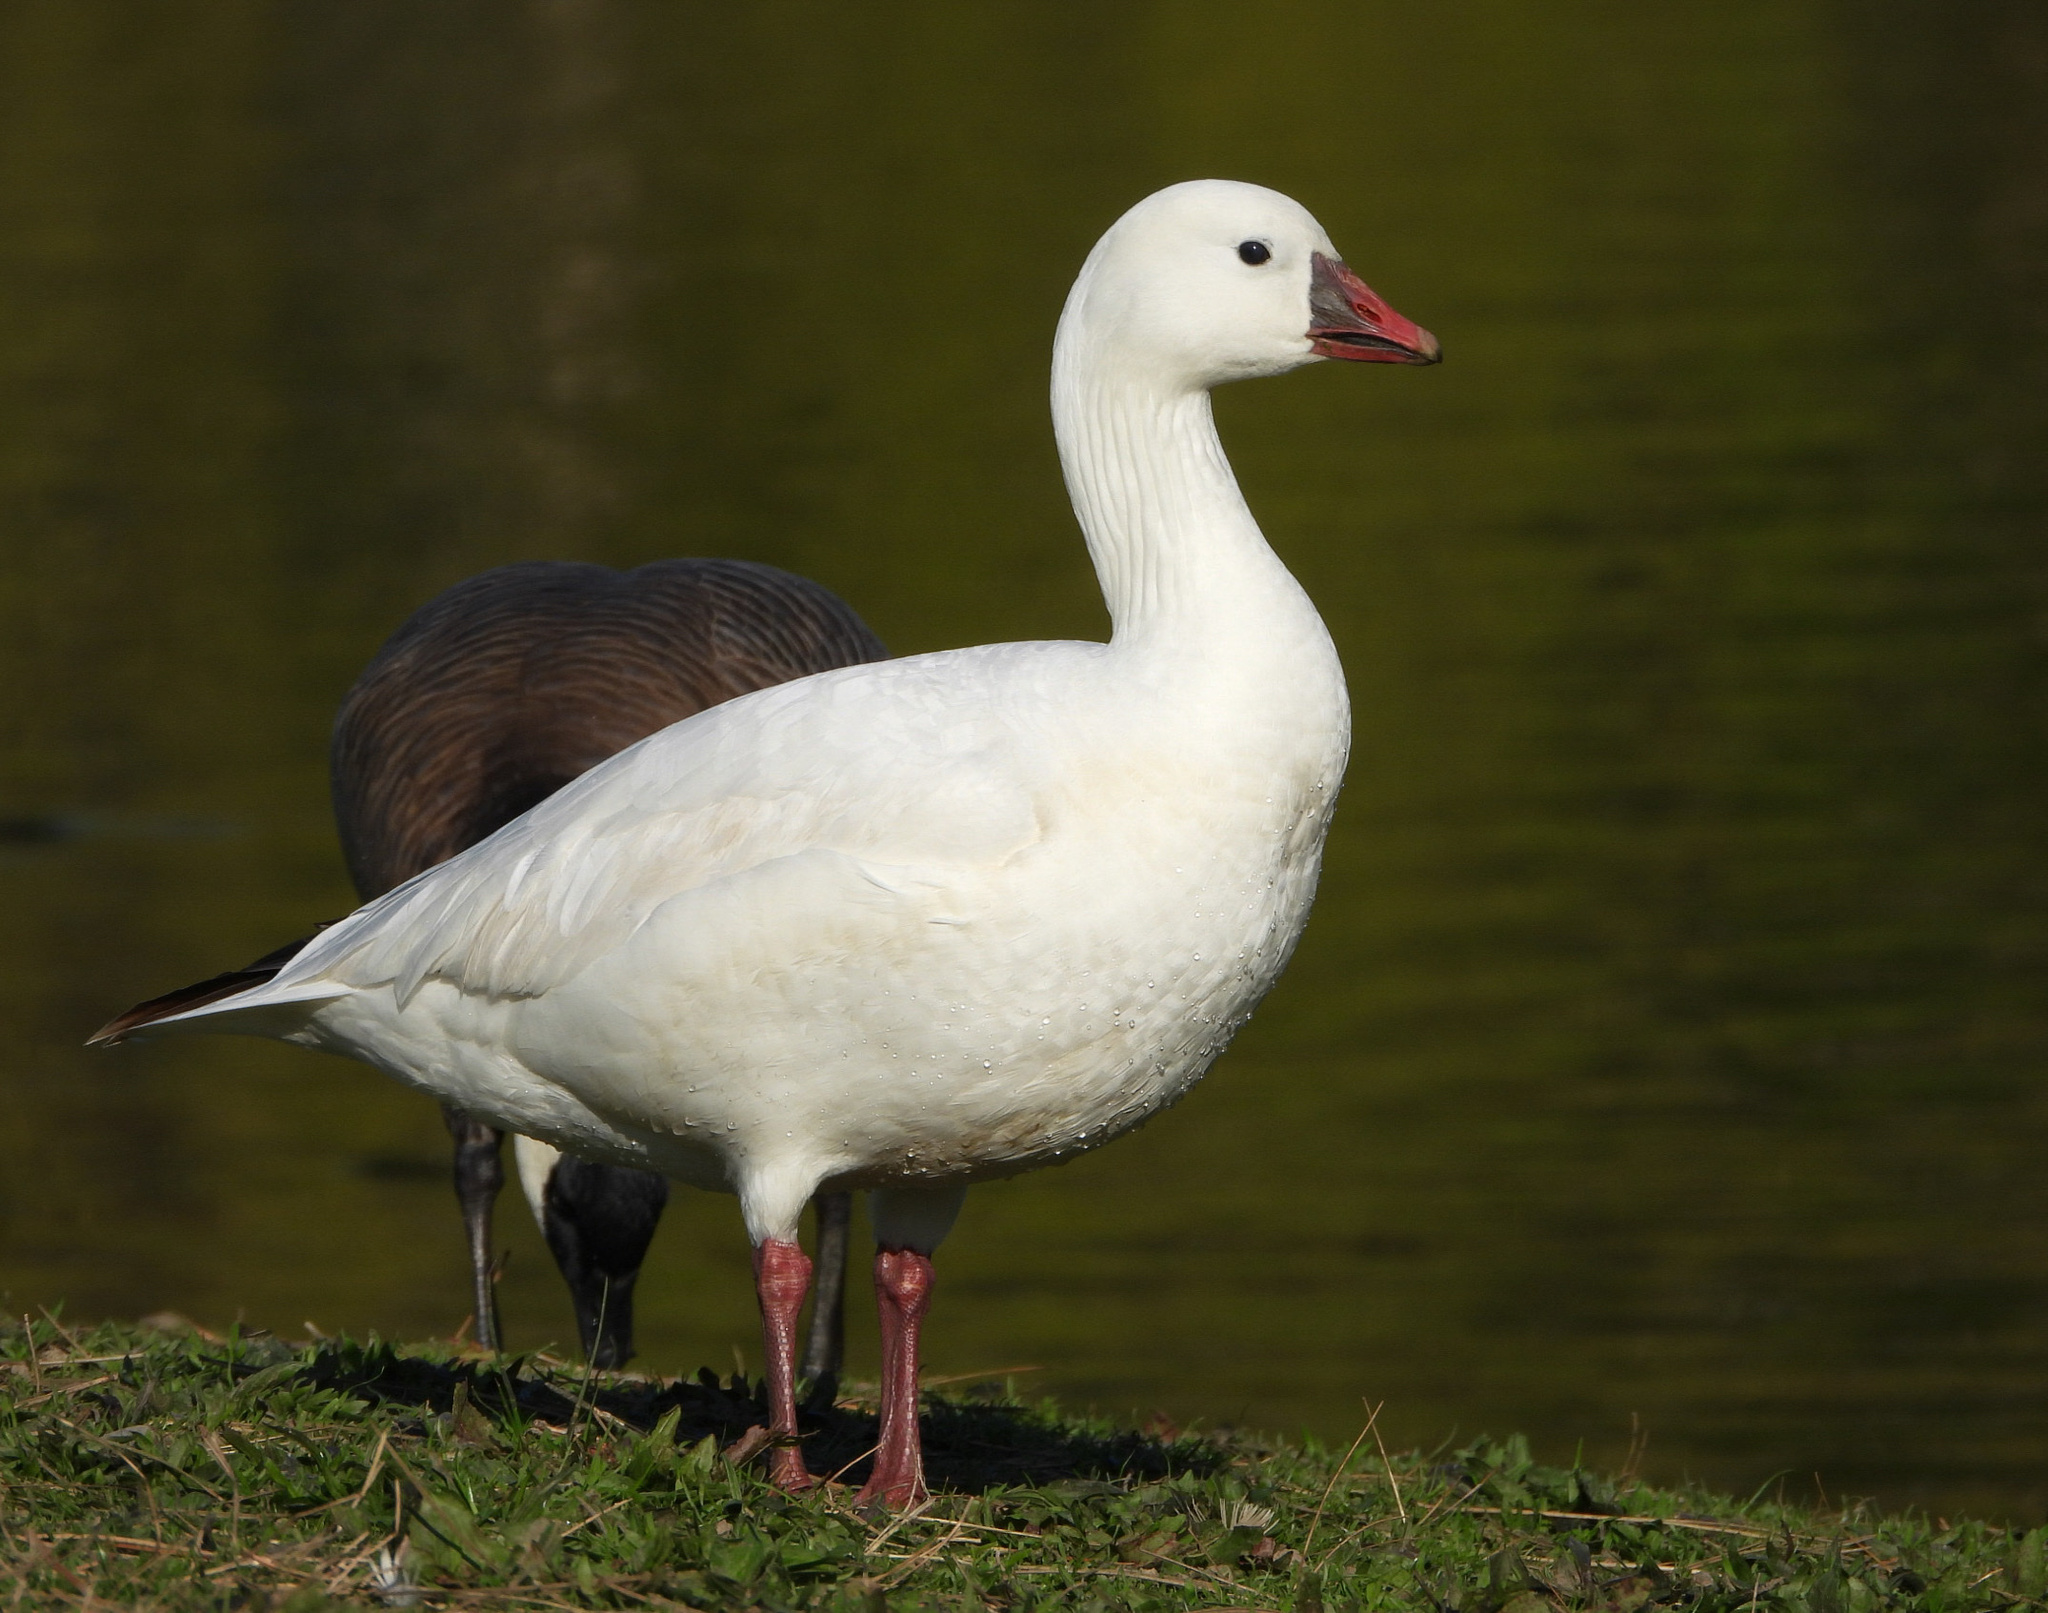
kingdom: Animalia
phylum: Chordata
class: Aves
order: Anseriformes
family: Anatidae
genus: Anser
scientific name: Anser rossii
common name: Ross's goose
